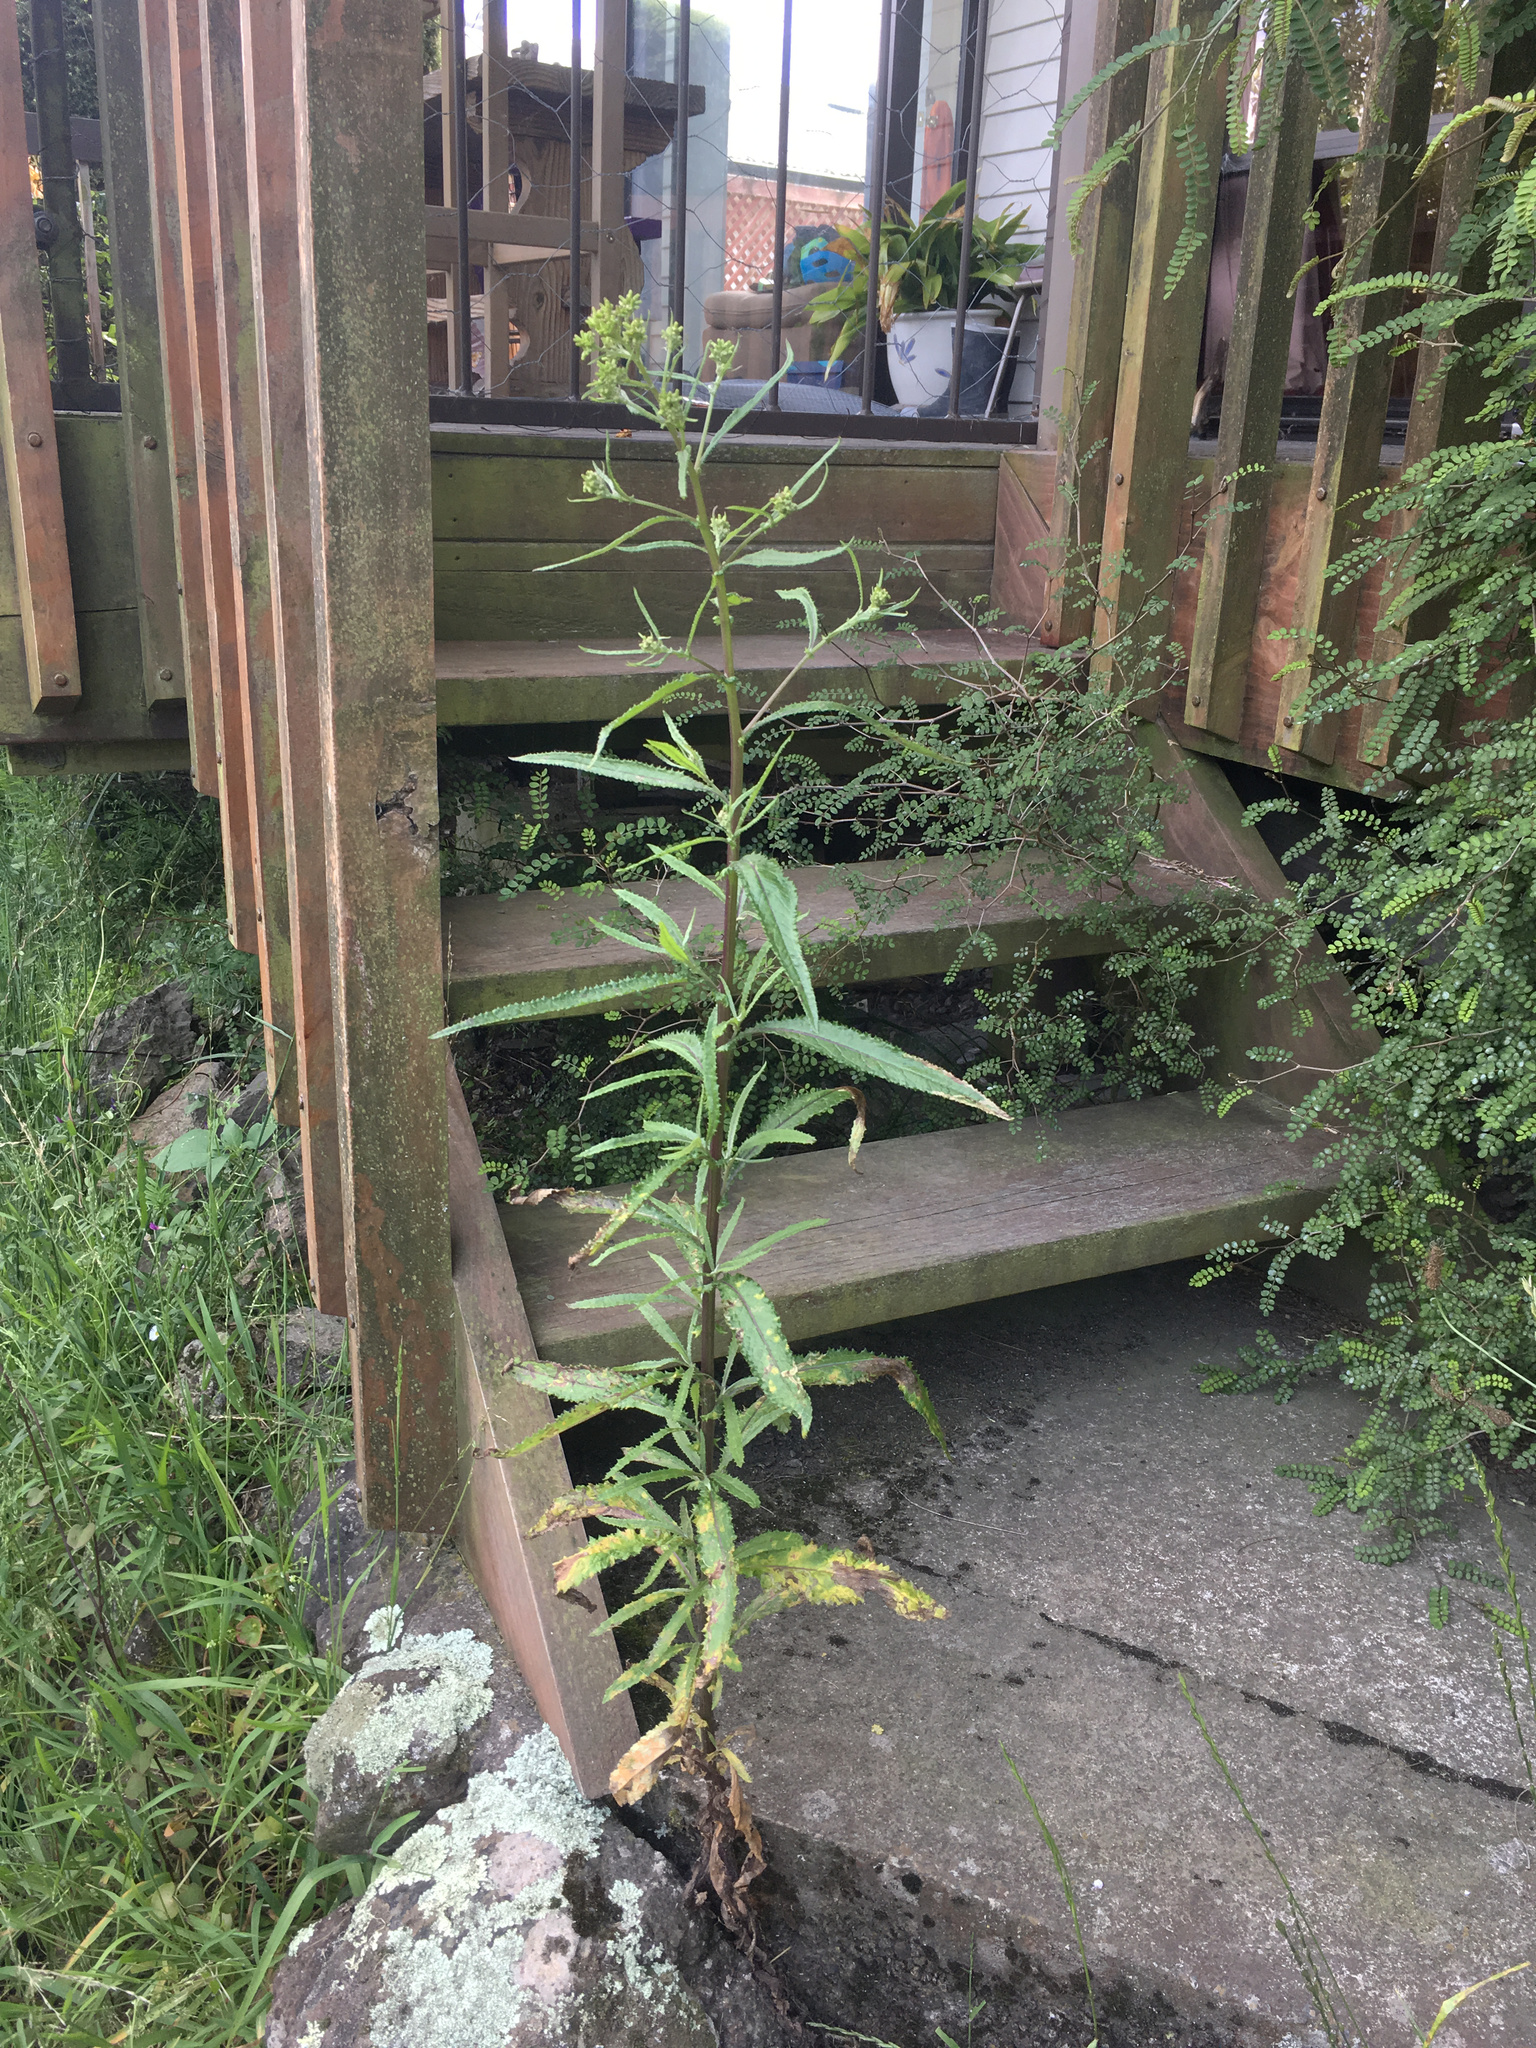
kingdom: Plantae
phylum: Tracheophyta
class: Magnoliopsida
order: Asterales
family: Asteraceae
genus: Senecio
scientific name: Senecio minimus
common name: Toothed fireweed
